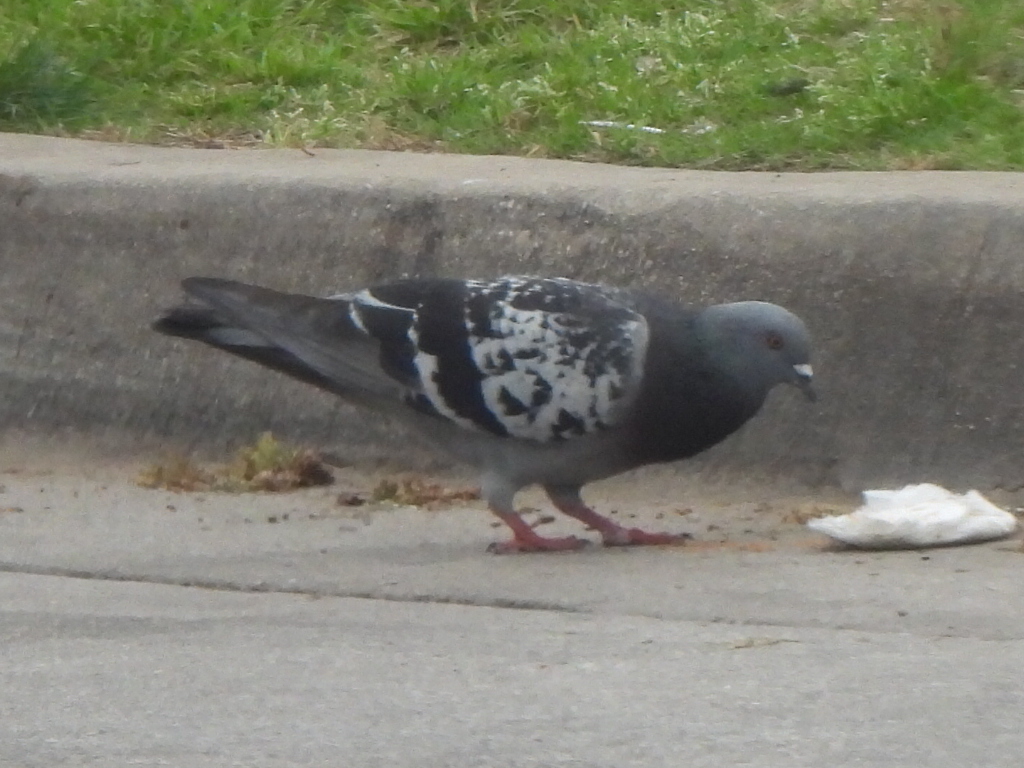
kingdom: Animalia
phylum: Chordata
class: Aves
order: Columbiformes
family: Columbidae
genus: Columba
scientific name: Columba livia
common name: Rock pigeon
